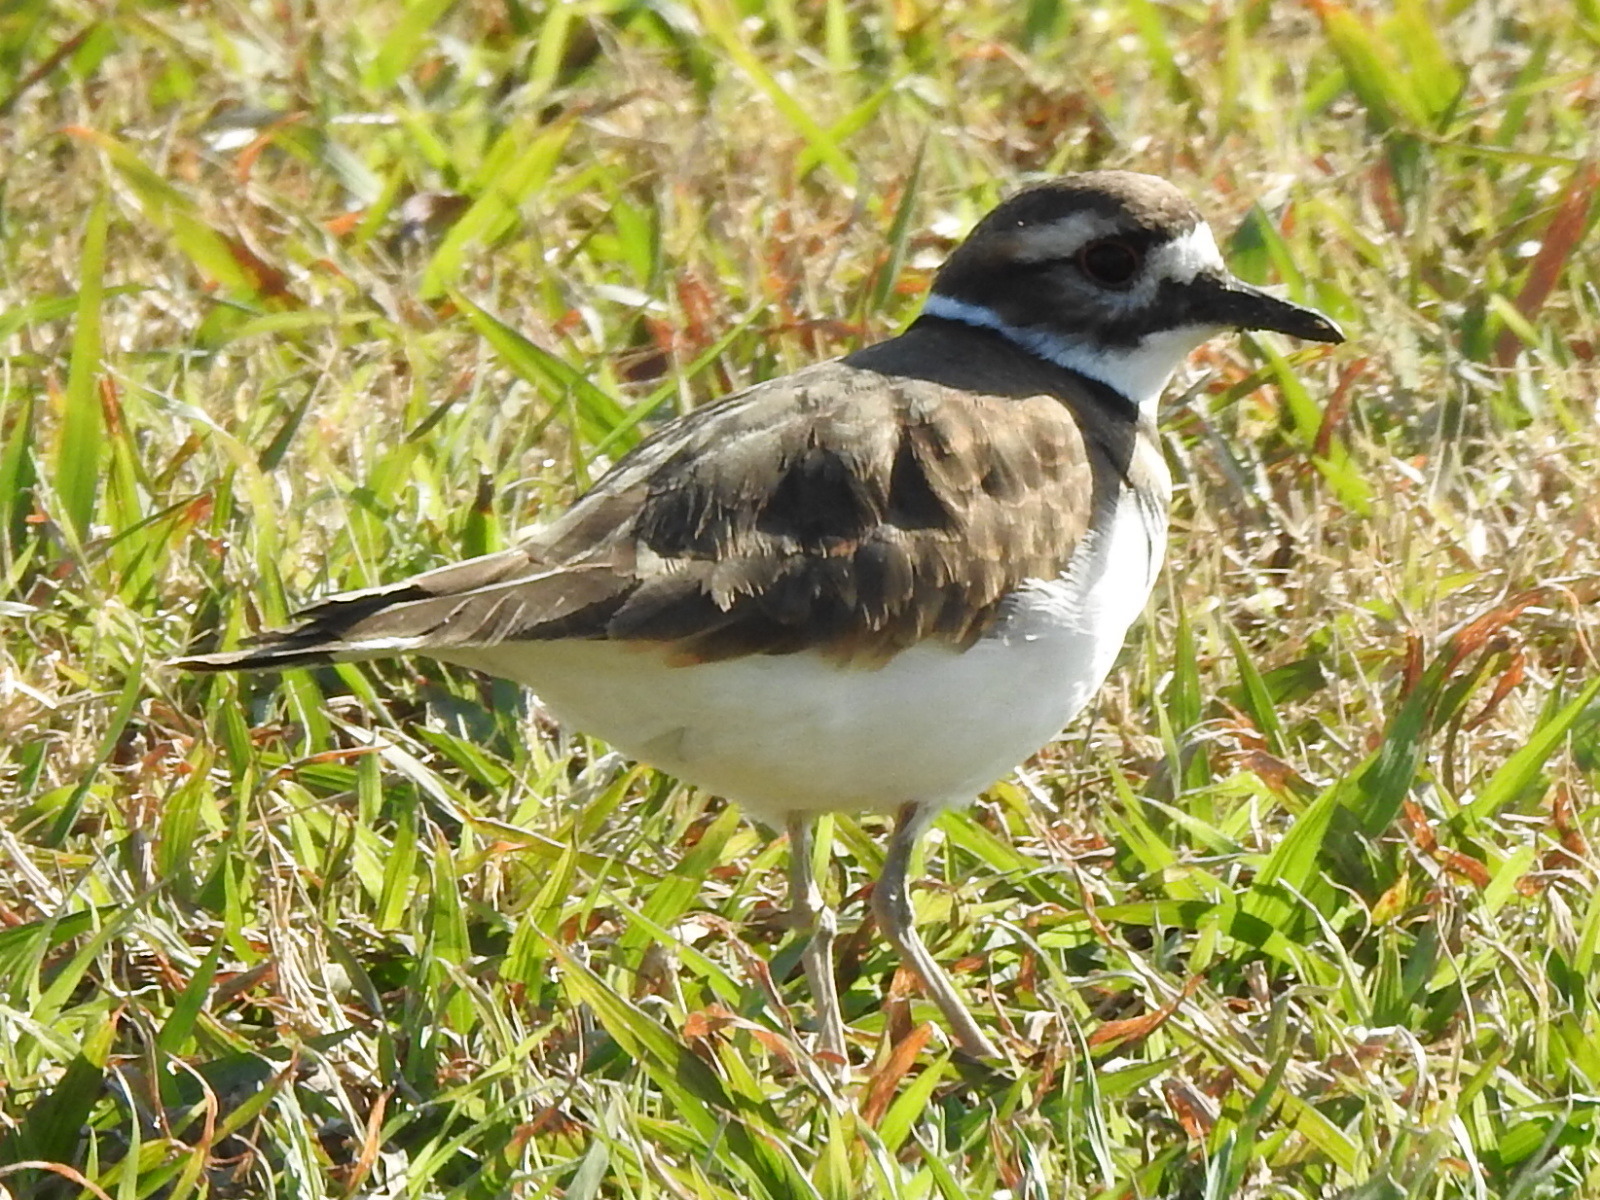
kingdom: Animalia
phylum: Chordata
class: Aves
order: Charadriiformes
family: Charadriidae
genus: Charadrius
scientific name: Charadrius vociferus
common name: Killdeer
